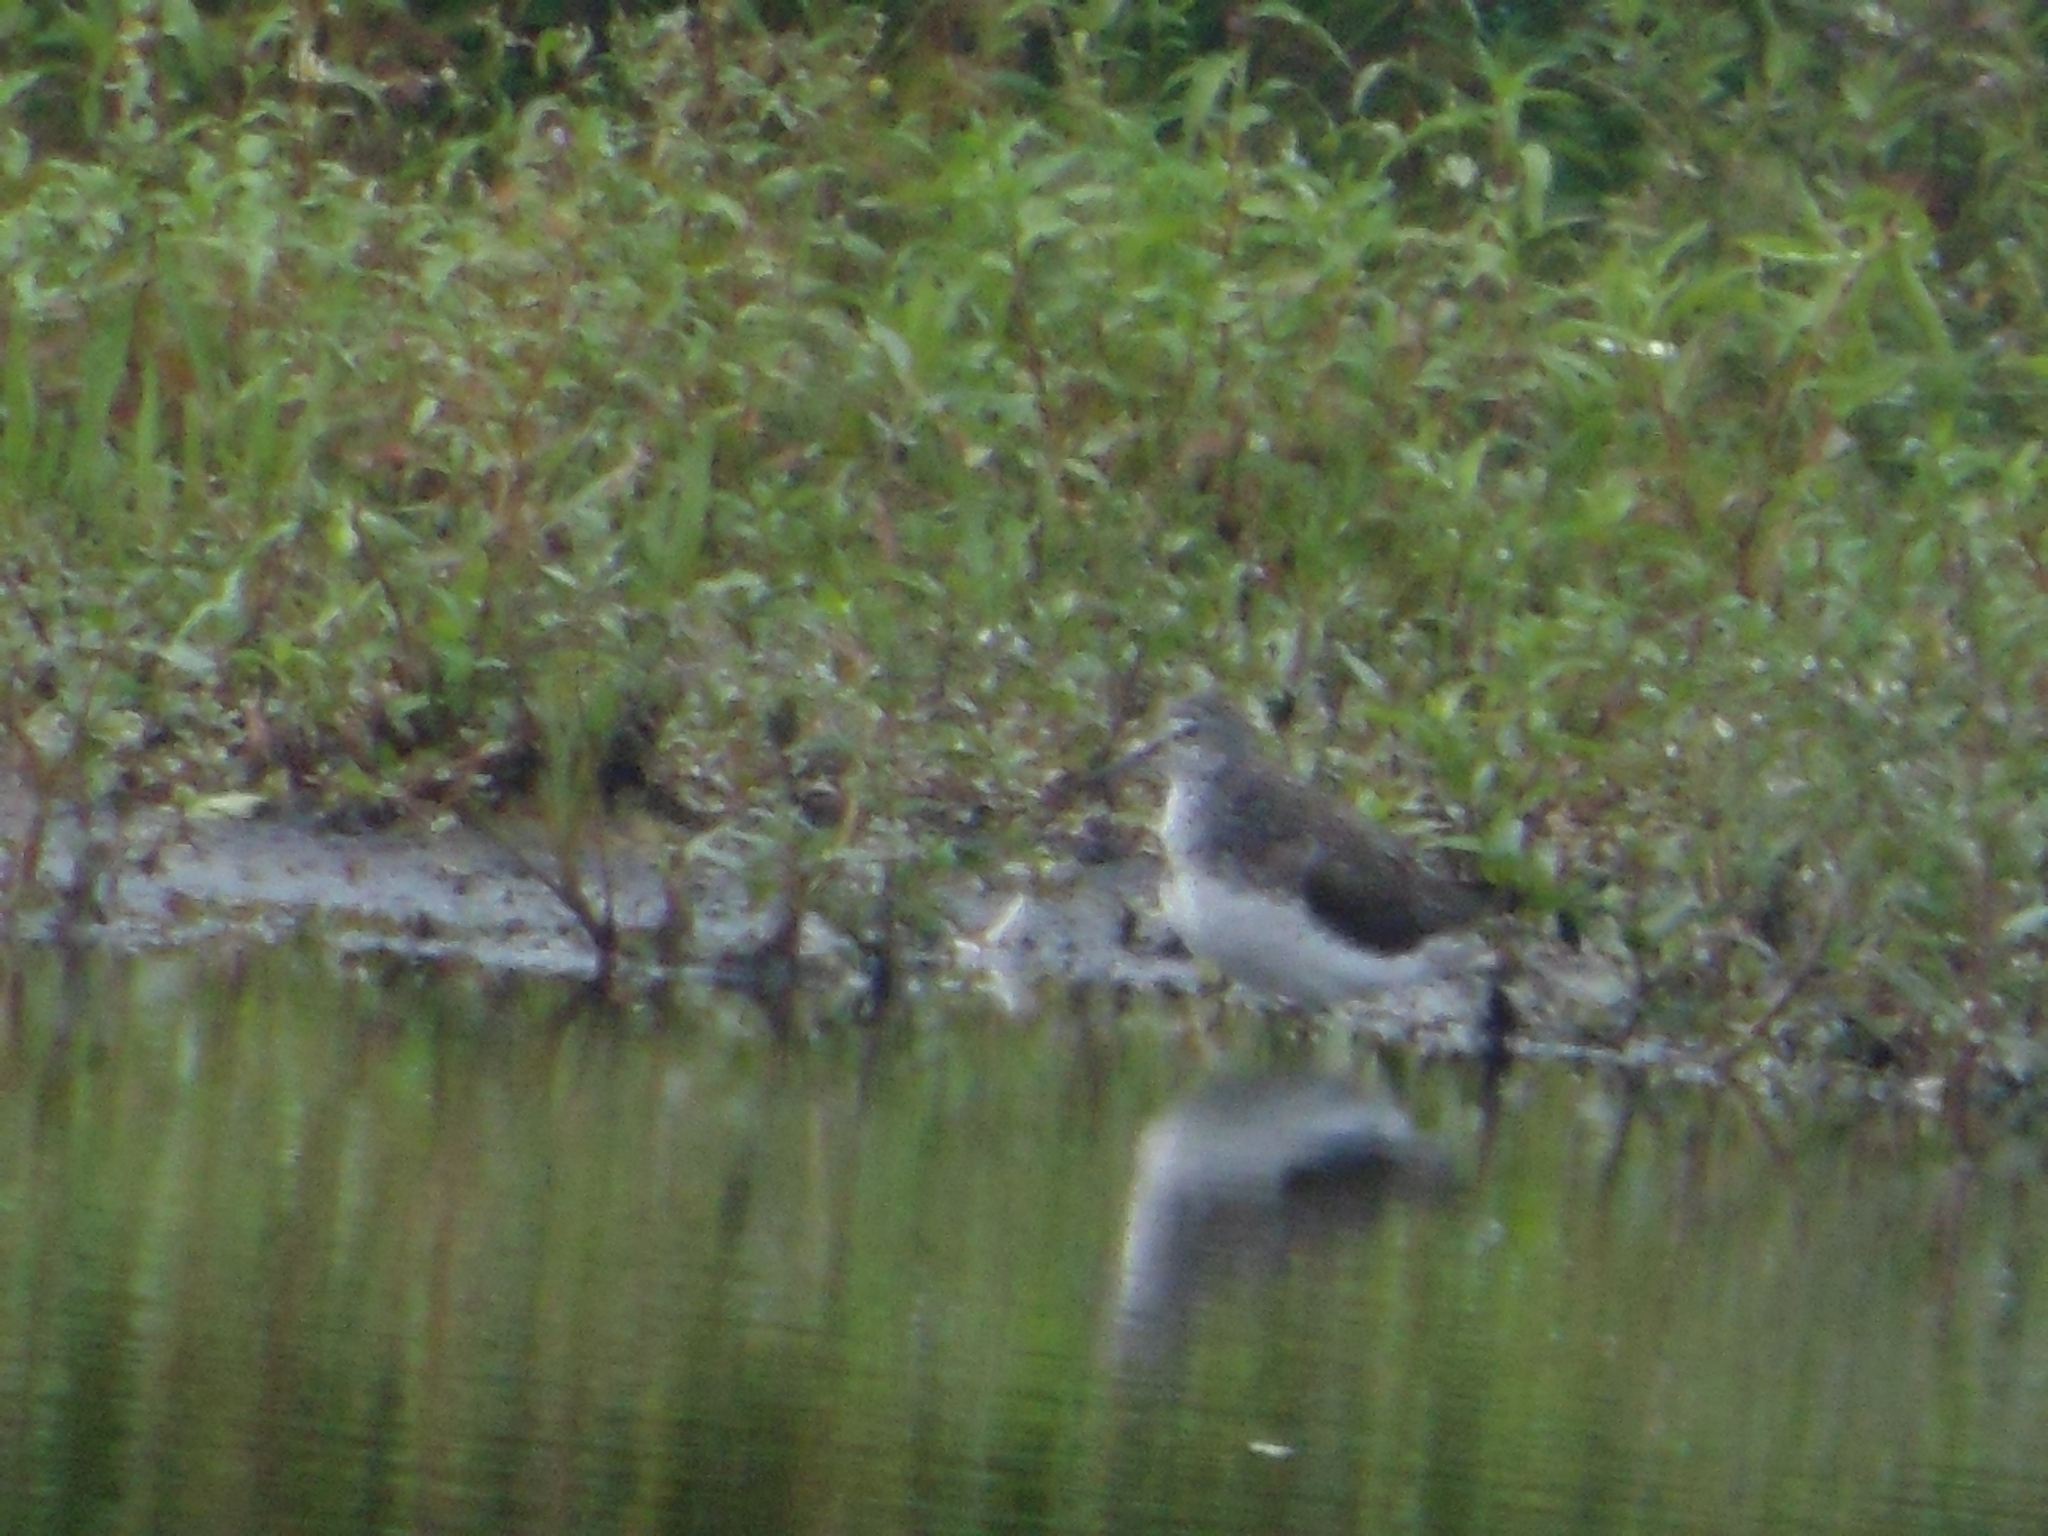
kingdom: Animalia
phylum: Chordata
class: Aves
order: Charadriiformes
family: Scolopacidae
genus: Tringa
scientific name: Tringa ochropus
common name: Green sandpiper
